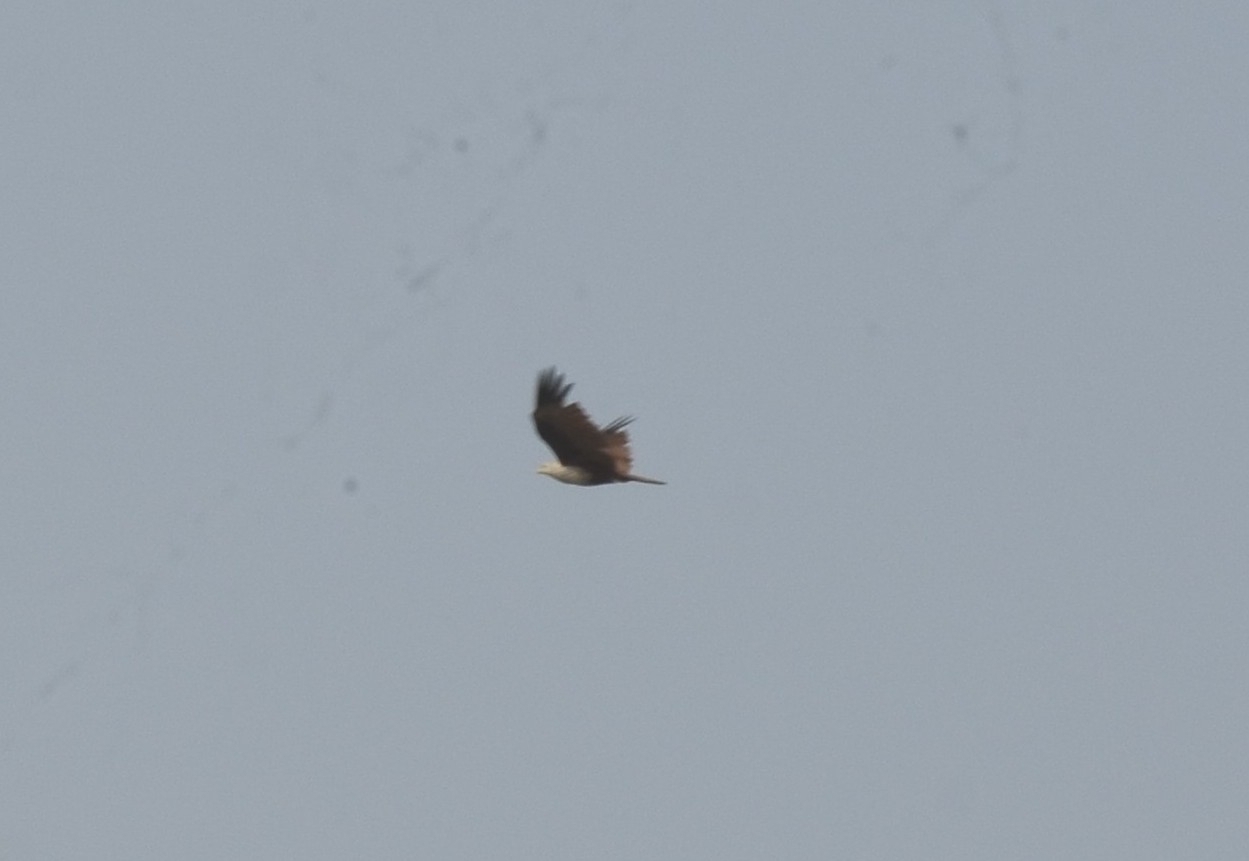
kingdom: Animalia
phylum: Chordata
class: Aves
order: Accipitriformes
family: Accipitridae
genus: Haliastur
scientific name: Haliastur indus
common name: Brahminy kite
